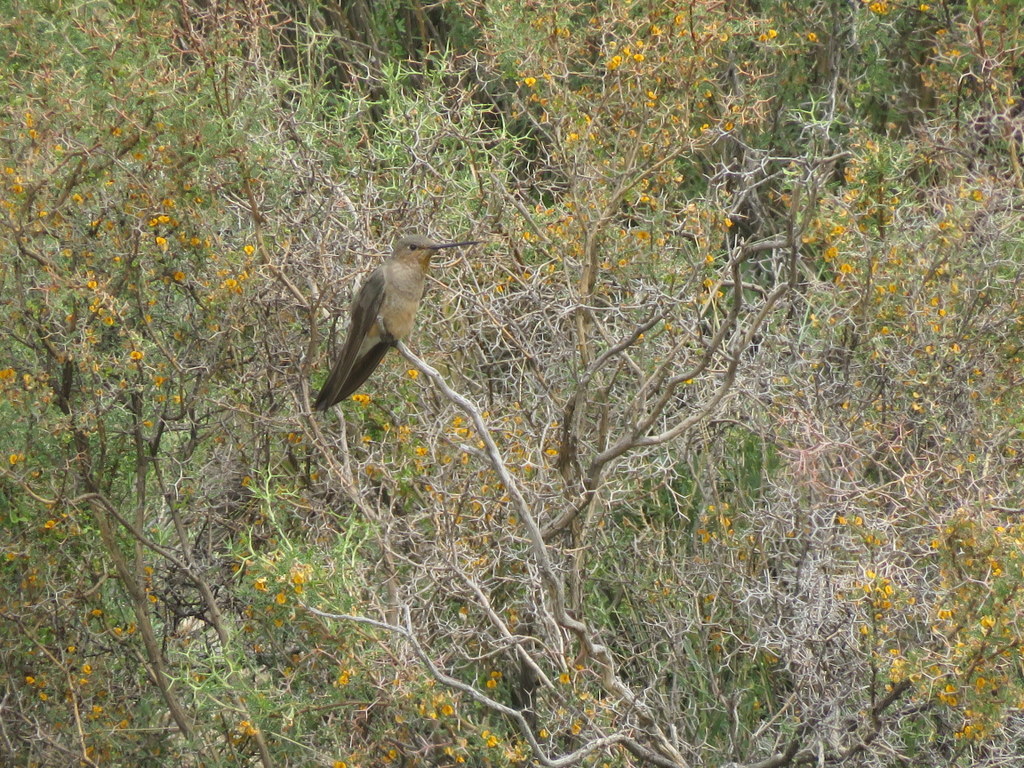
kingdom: Animalia
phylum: Chordata
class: Aves
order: Apodiformes
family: Trochilidae
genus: Patagona
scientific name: Patagona gigas
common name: Giant hummingbird
